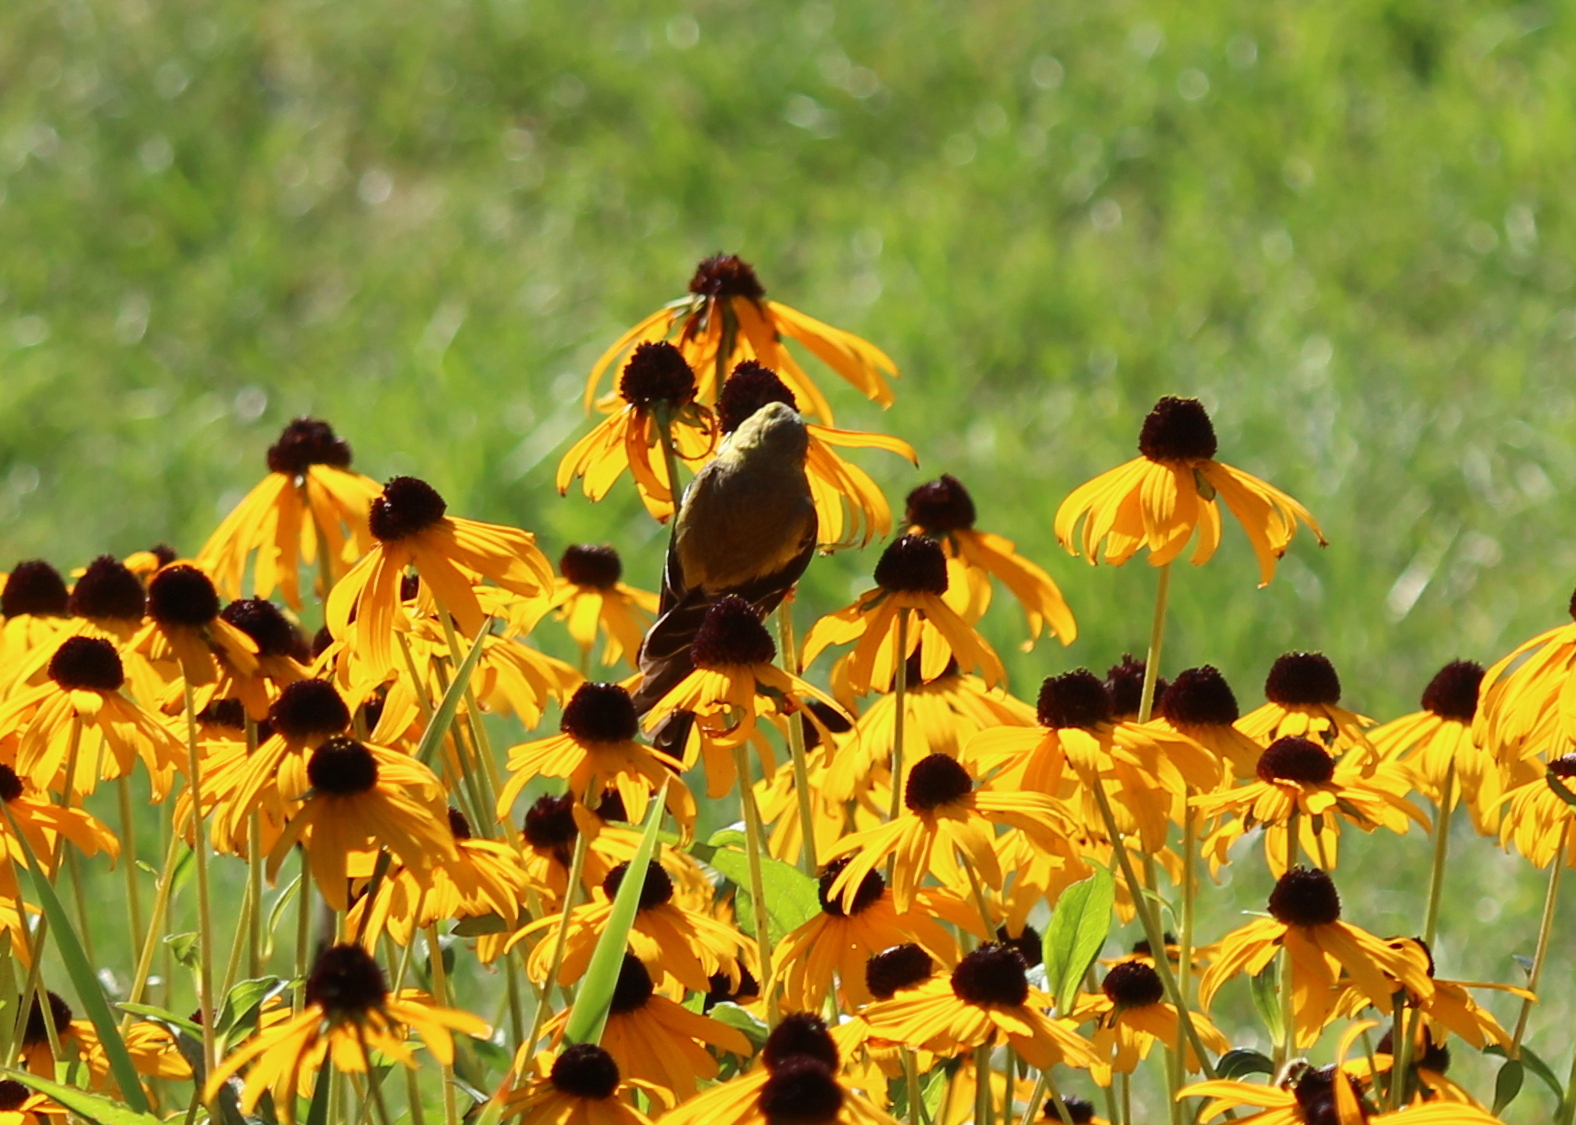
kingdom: Animalia
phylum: Chordata
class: Aves
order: Passeriformes
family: Fringillidae
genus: Spinus
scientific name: Spinus tristis
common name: American goldfinch
